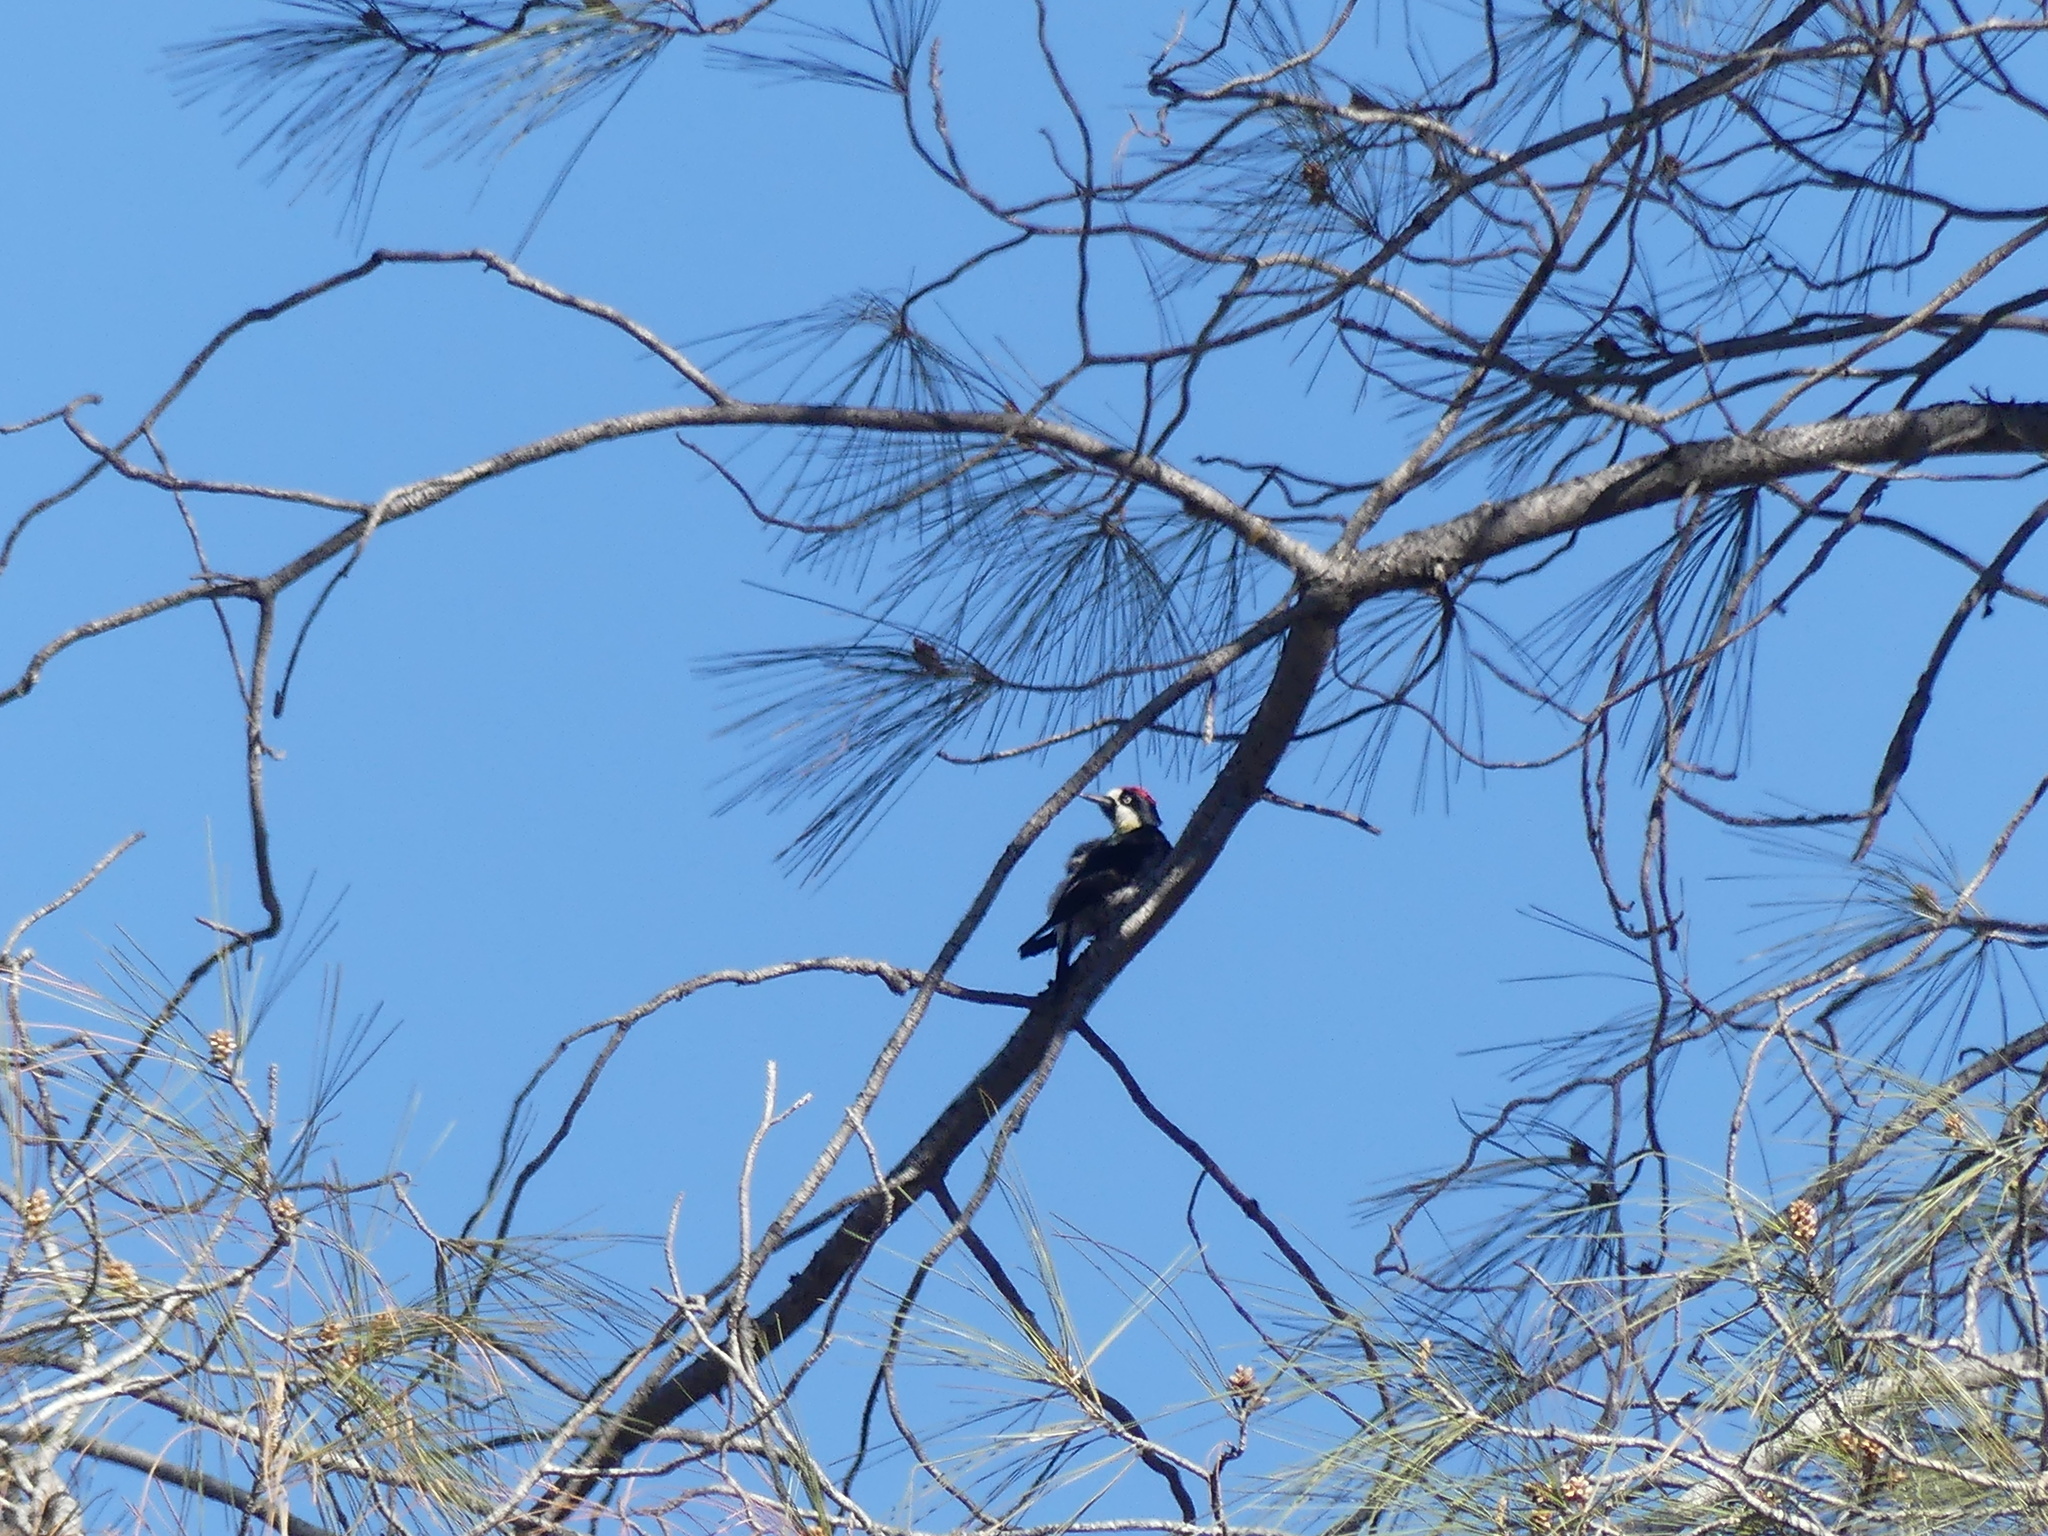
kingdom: Animalia
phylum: Chordata
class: Aves
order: Piciformes
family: Picidae
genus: Melanerpes
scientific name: Melanerpes formicivorus
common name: Acorn woodpecker
